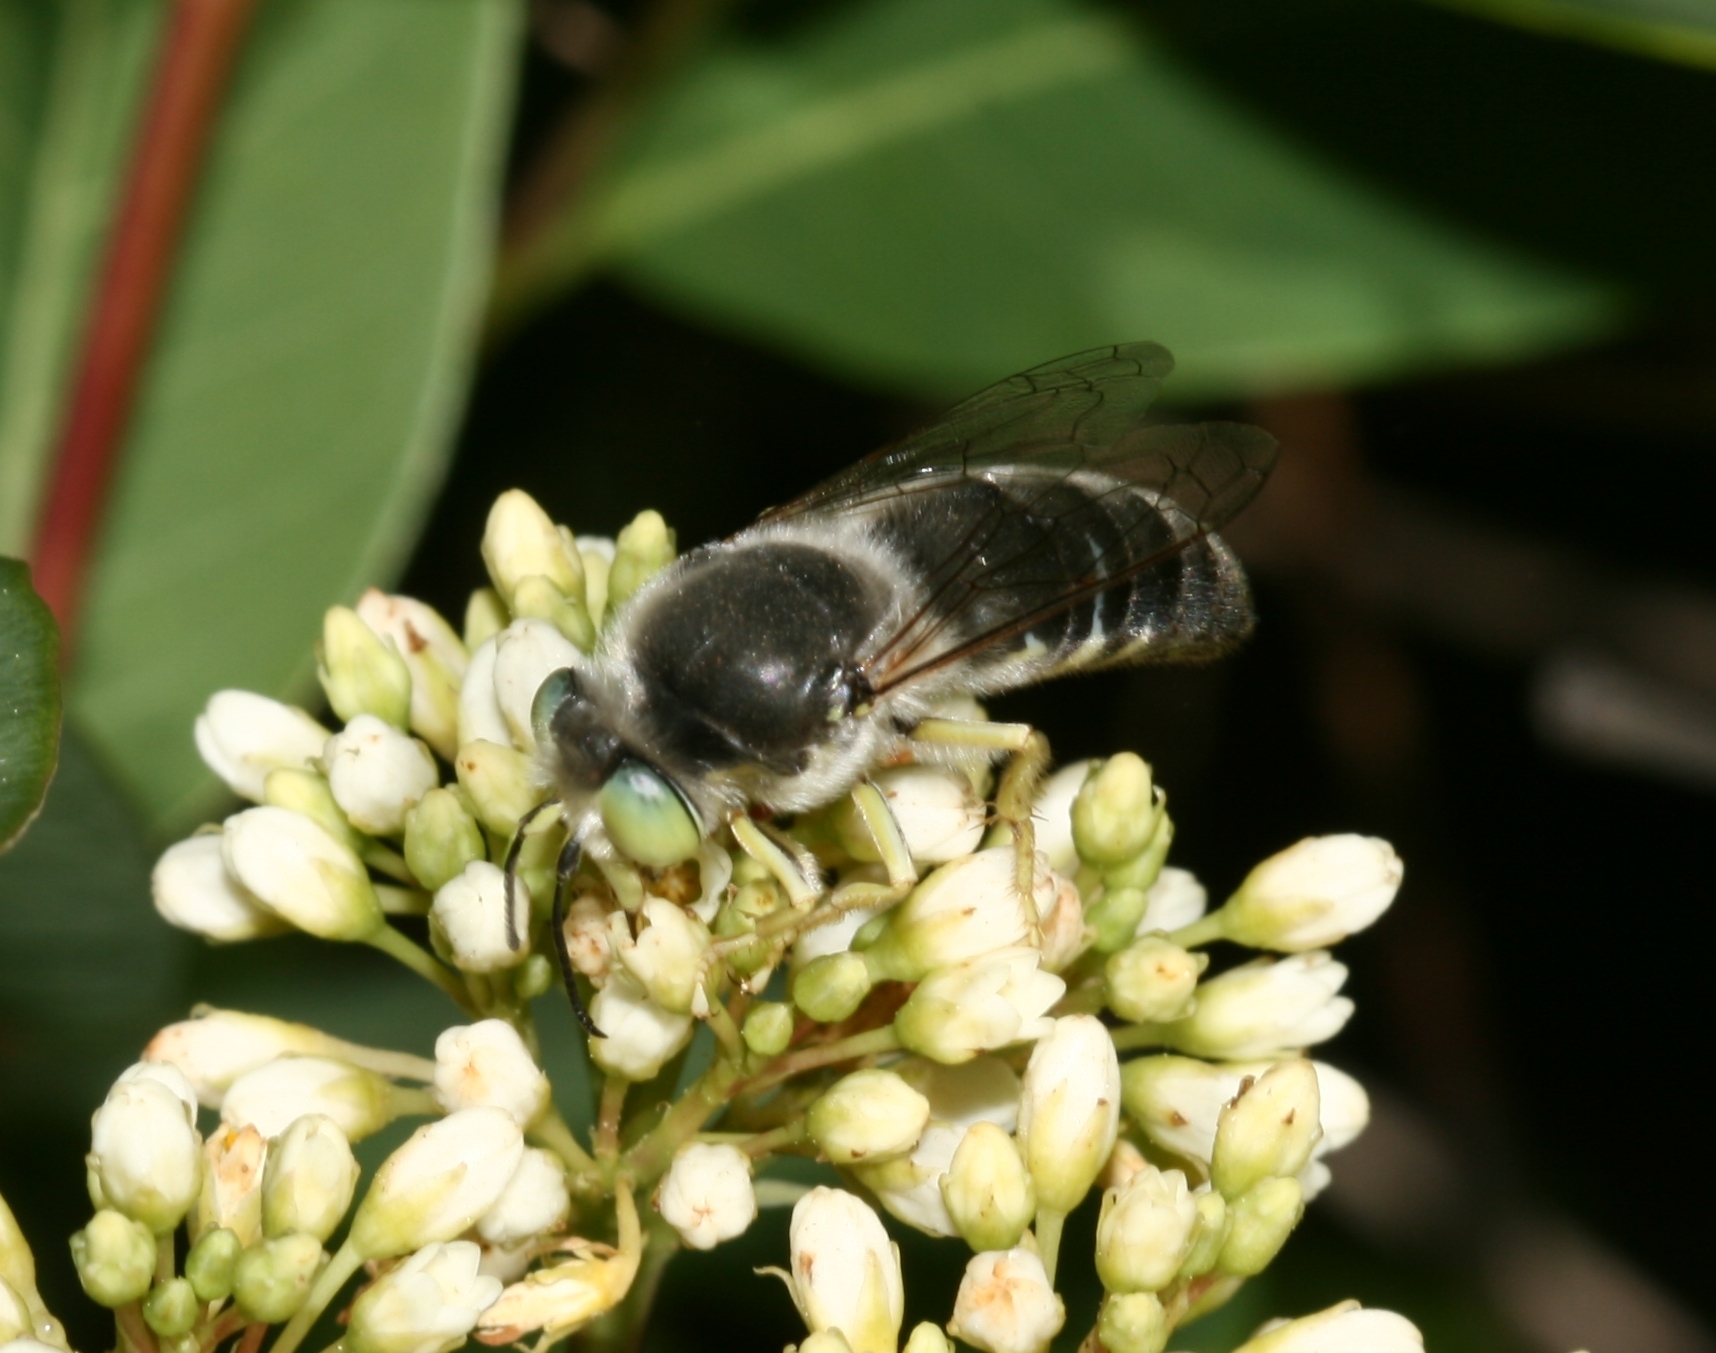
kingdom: Animalia
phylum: Arthropoda
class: Insecta
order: Hymenoptera
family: Crabronidae
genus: Bembix
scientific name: Bembix amoena
